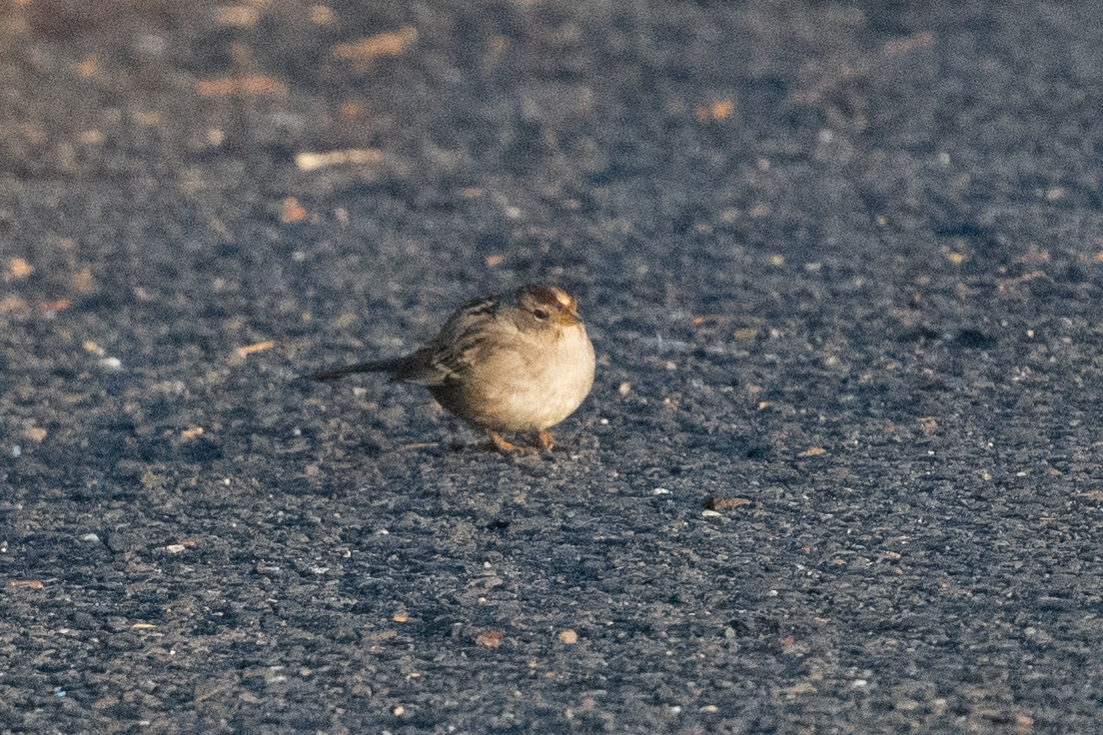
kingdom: Animalia
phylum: Chordata
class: Aves
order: Passeriformes
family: Passerellidae
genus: Zonotrichia
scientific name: Zonotrichia leucophrys
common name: White-crowned sparrow
